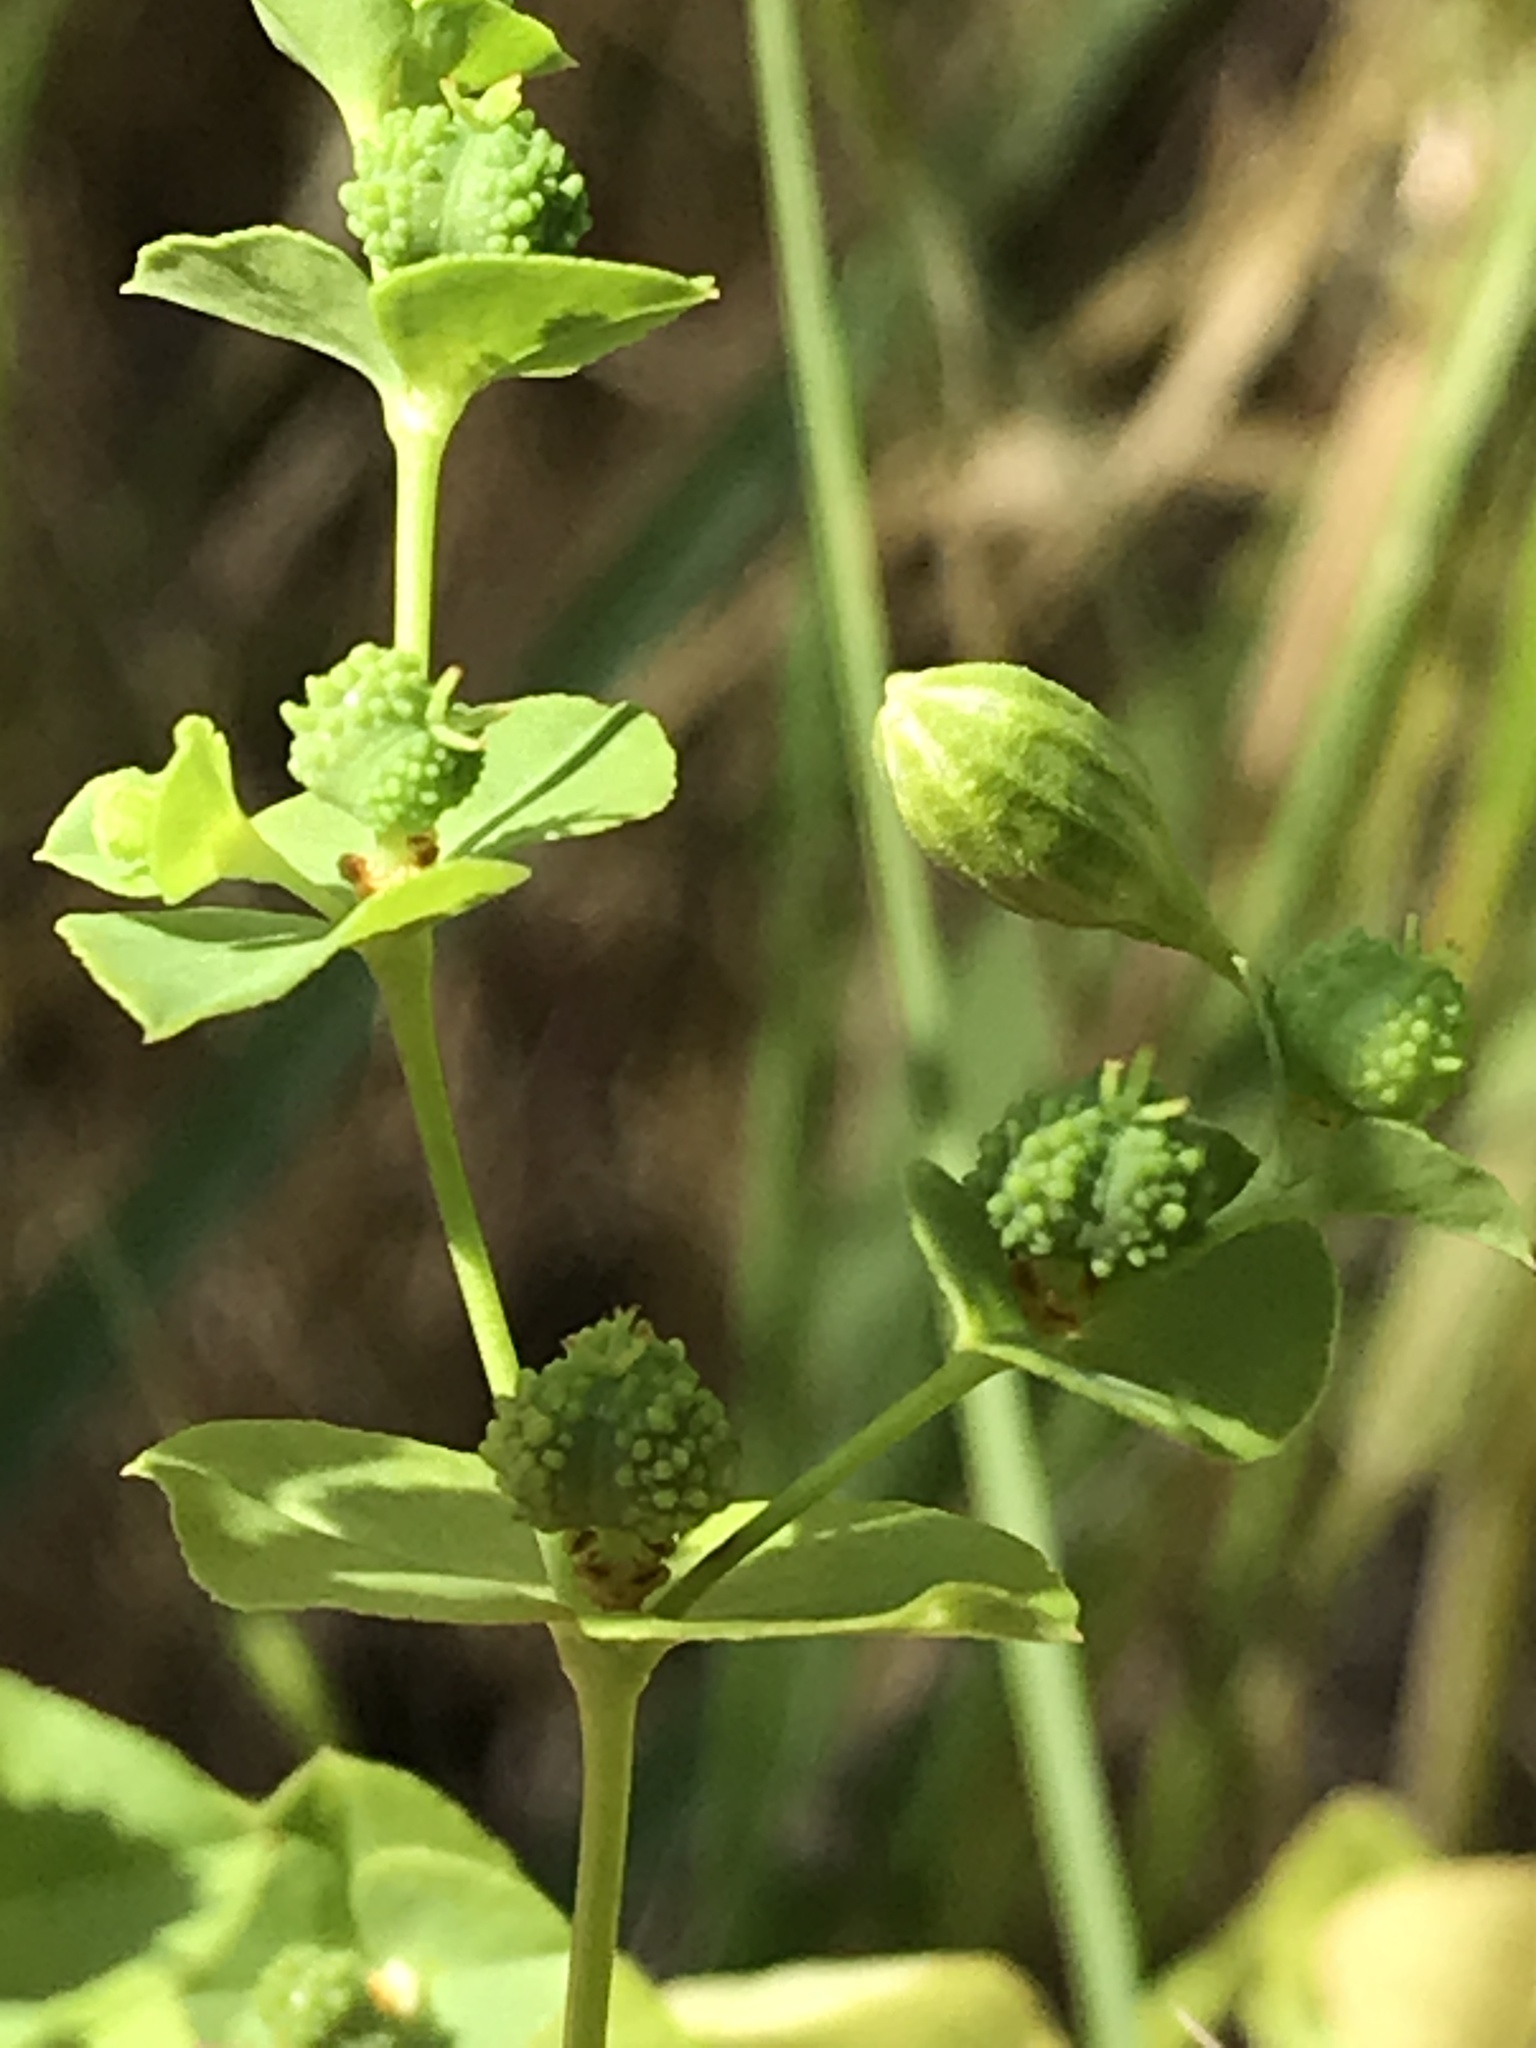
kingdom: Plantae
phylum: Tracheophyta
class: Magnoliopsida
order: Malpighiales
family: Euphorbiaceae
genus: Euphorbia
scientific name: Euphorbia spathulata
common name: Blunt spurge
